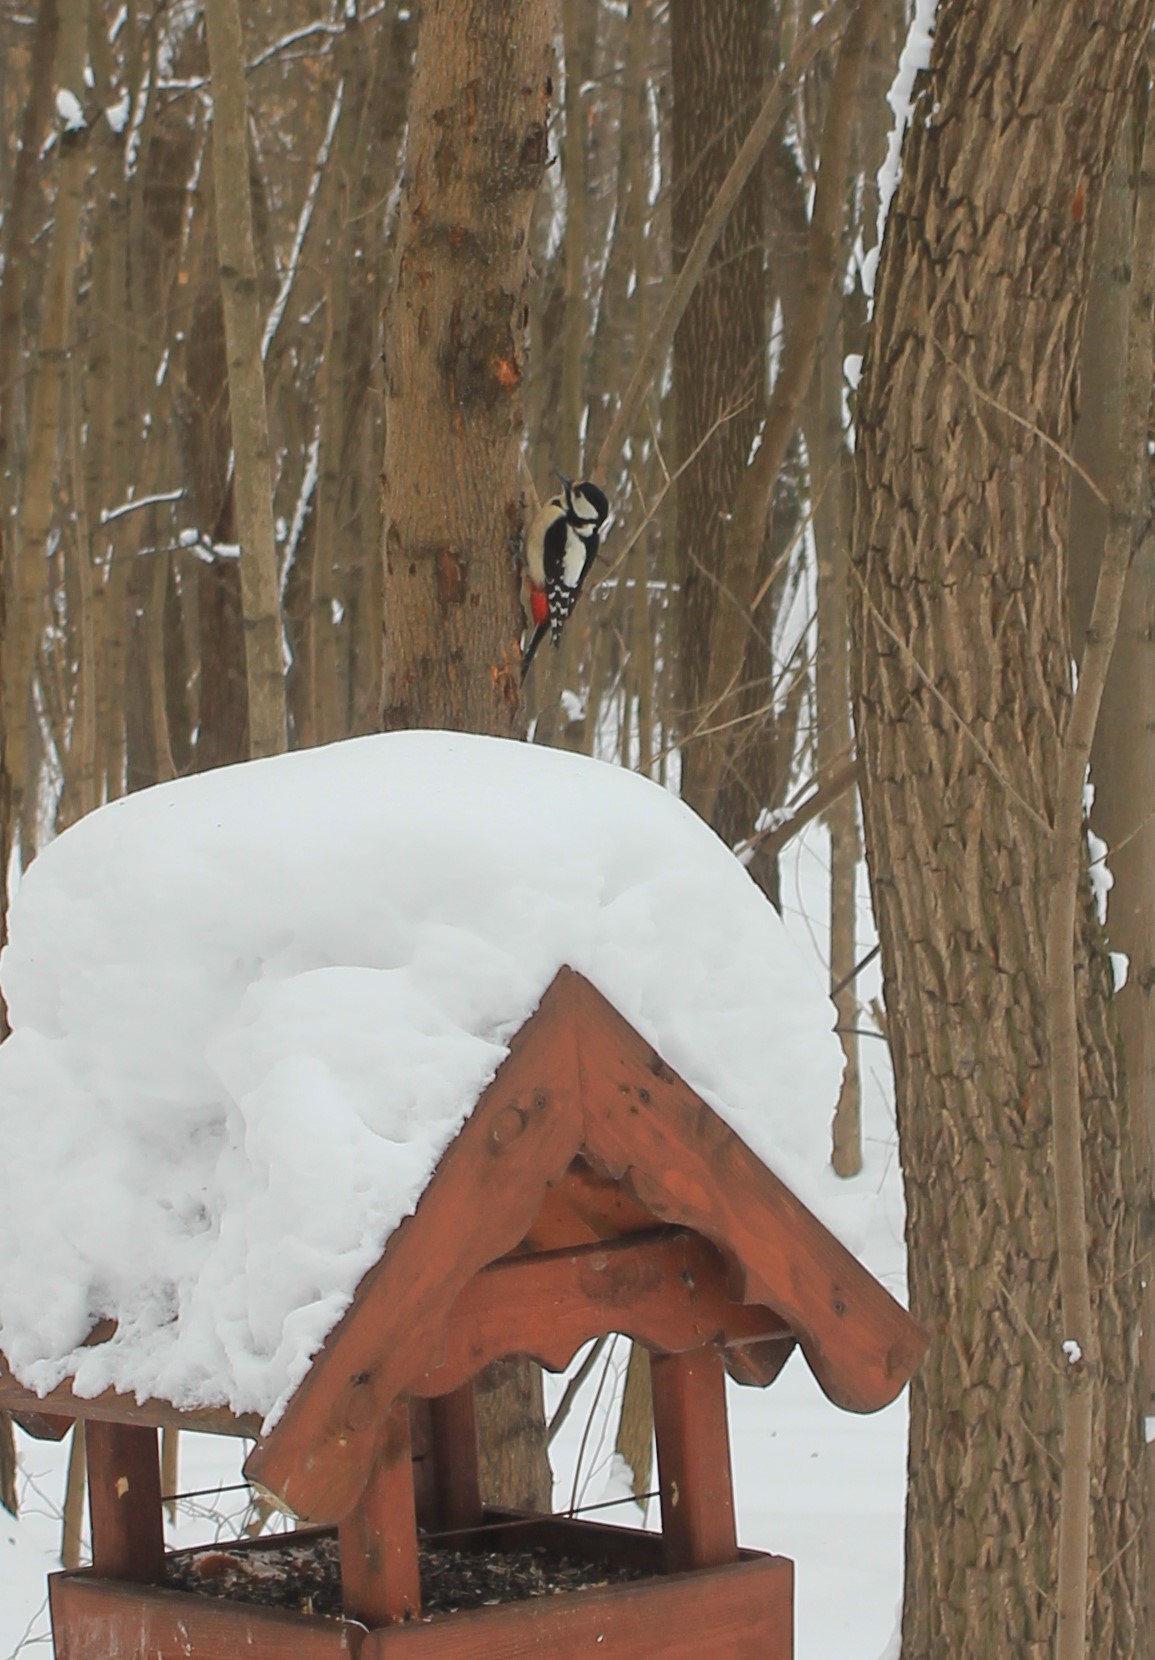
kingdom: Animalia
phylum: Chordata
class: Aves
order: Piciformes
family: Picidae
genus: Dendrocopos
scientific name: Dendrocopos major
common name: Great spotted woodpecker
